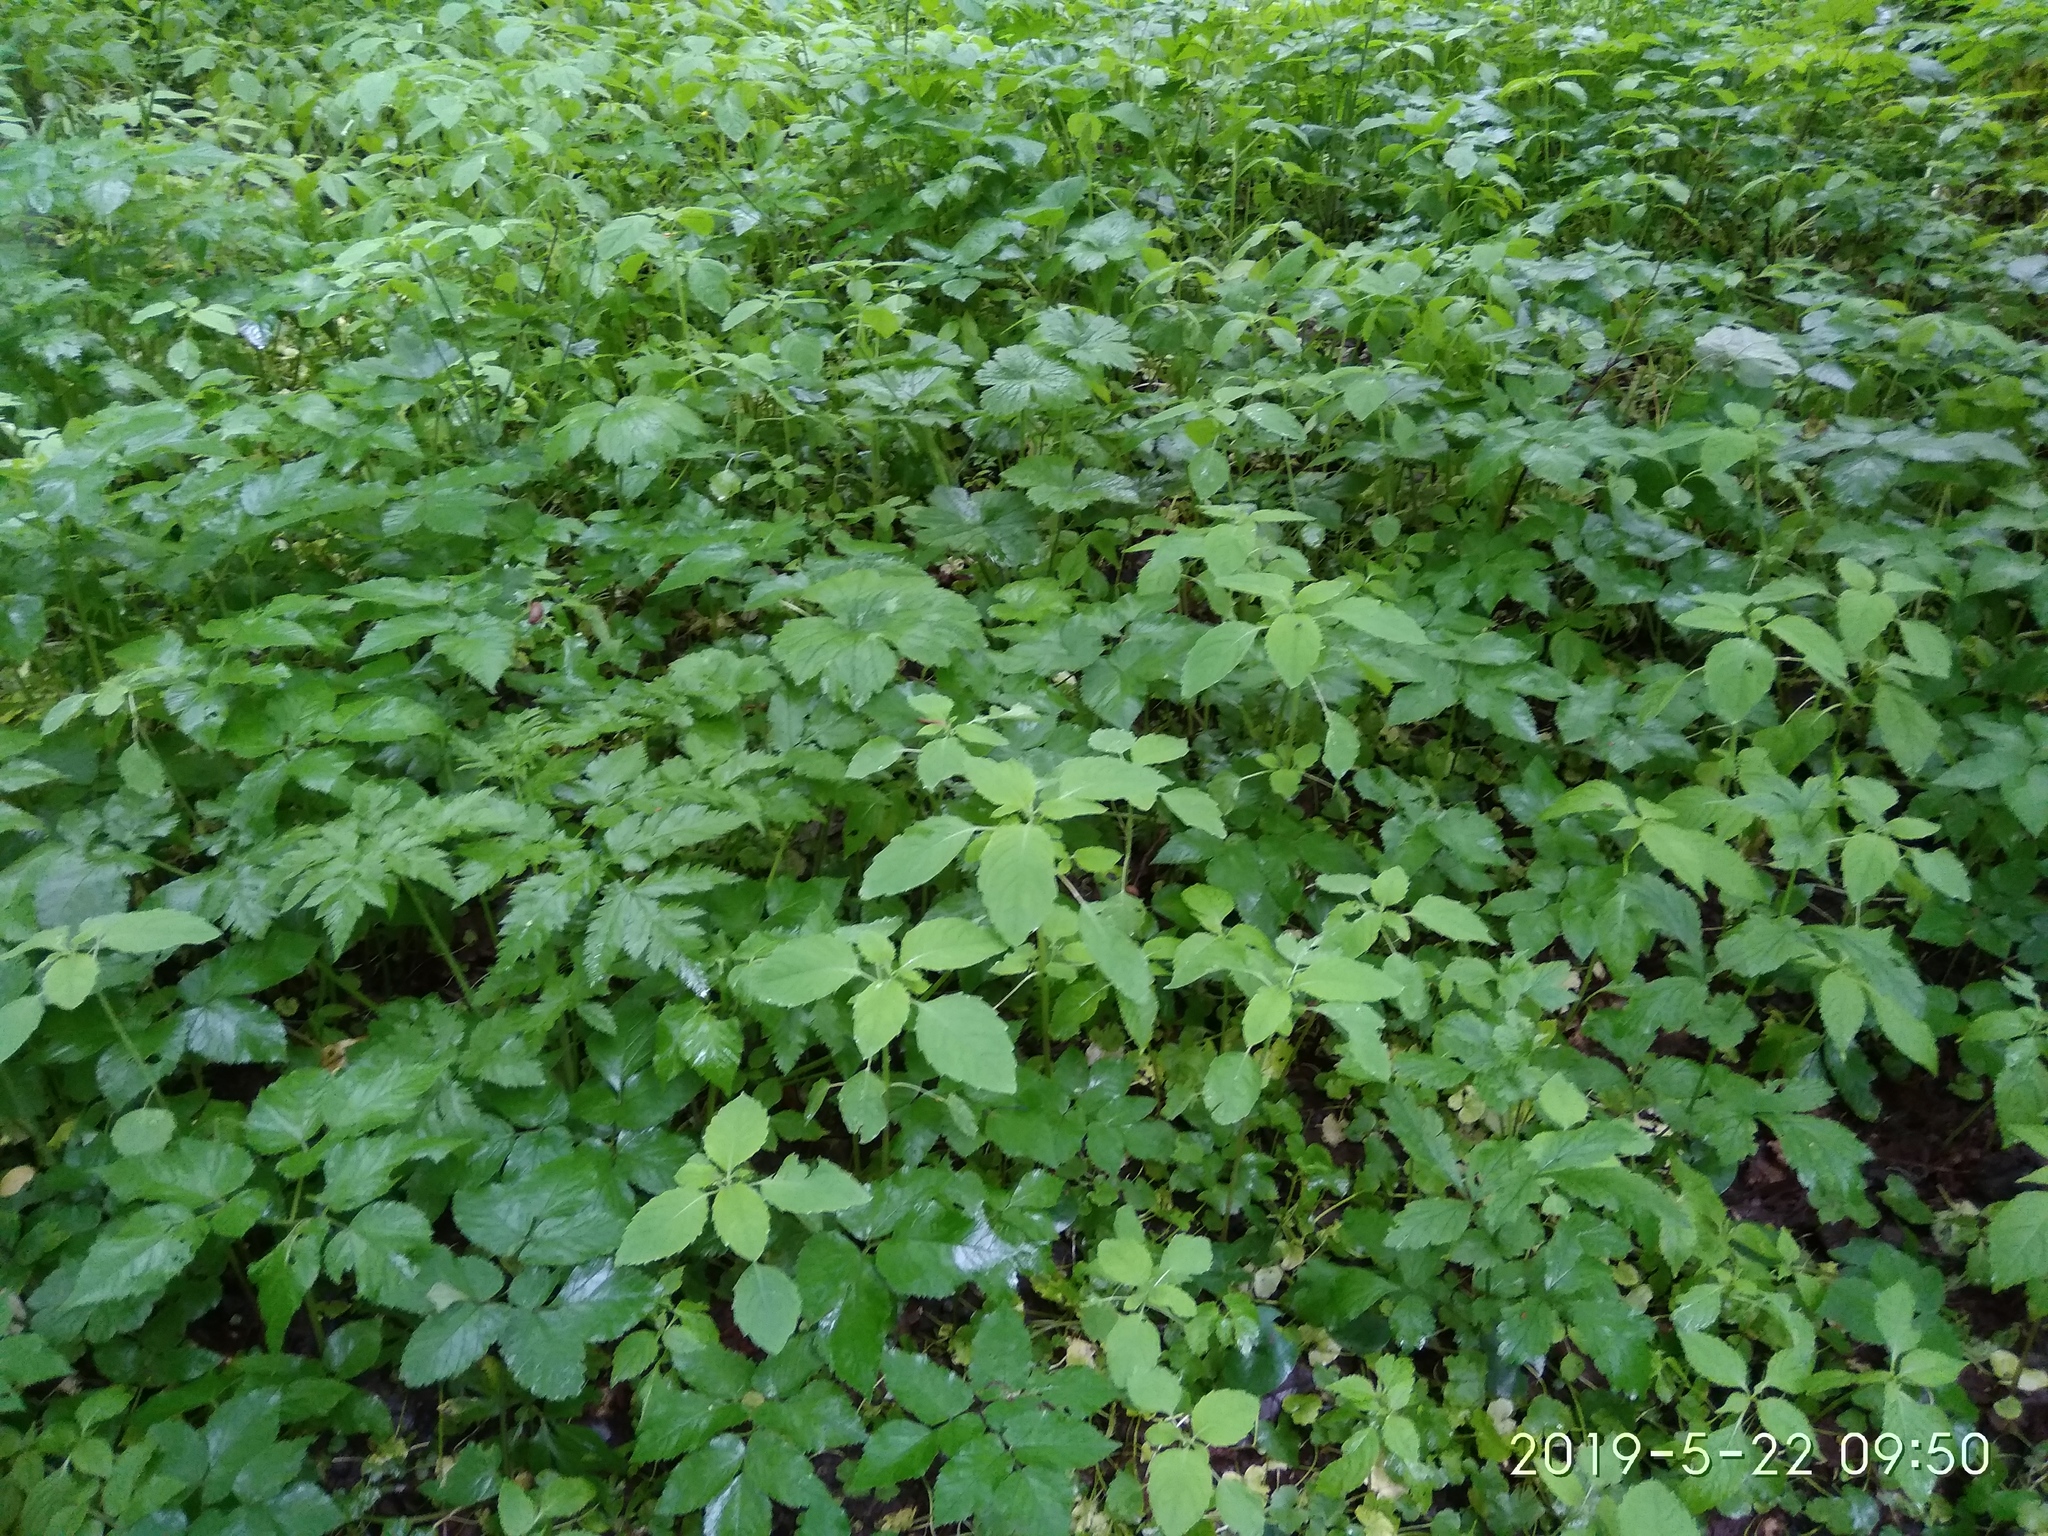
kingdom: Plantae
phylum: Tracheophyta
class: Magnoliopsida
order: Ericales
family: Balsaminaceae
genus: Impatiens
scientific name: Impatiens noli-tangere
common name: Touch-me-not balsam
